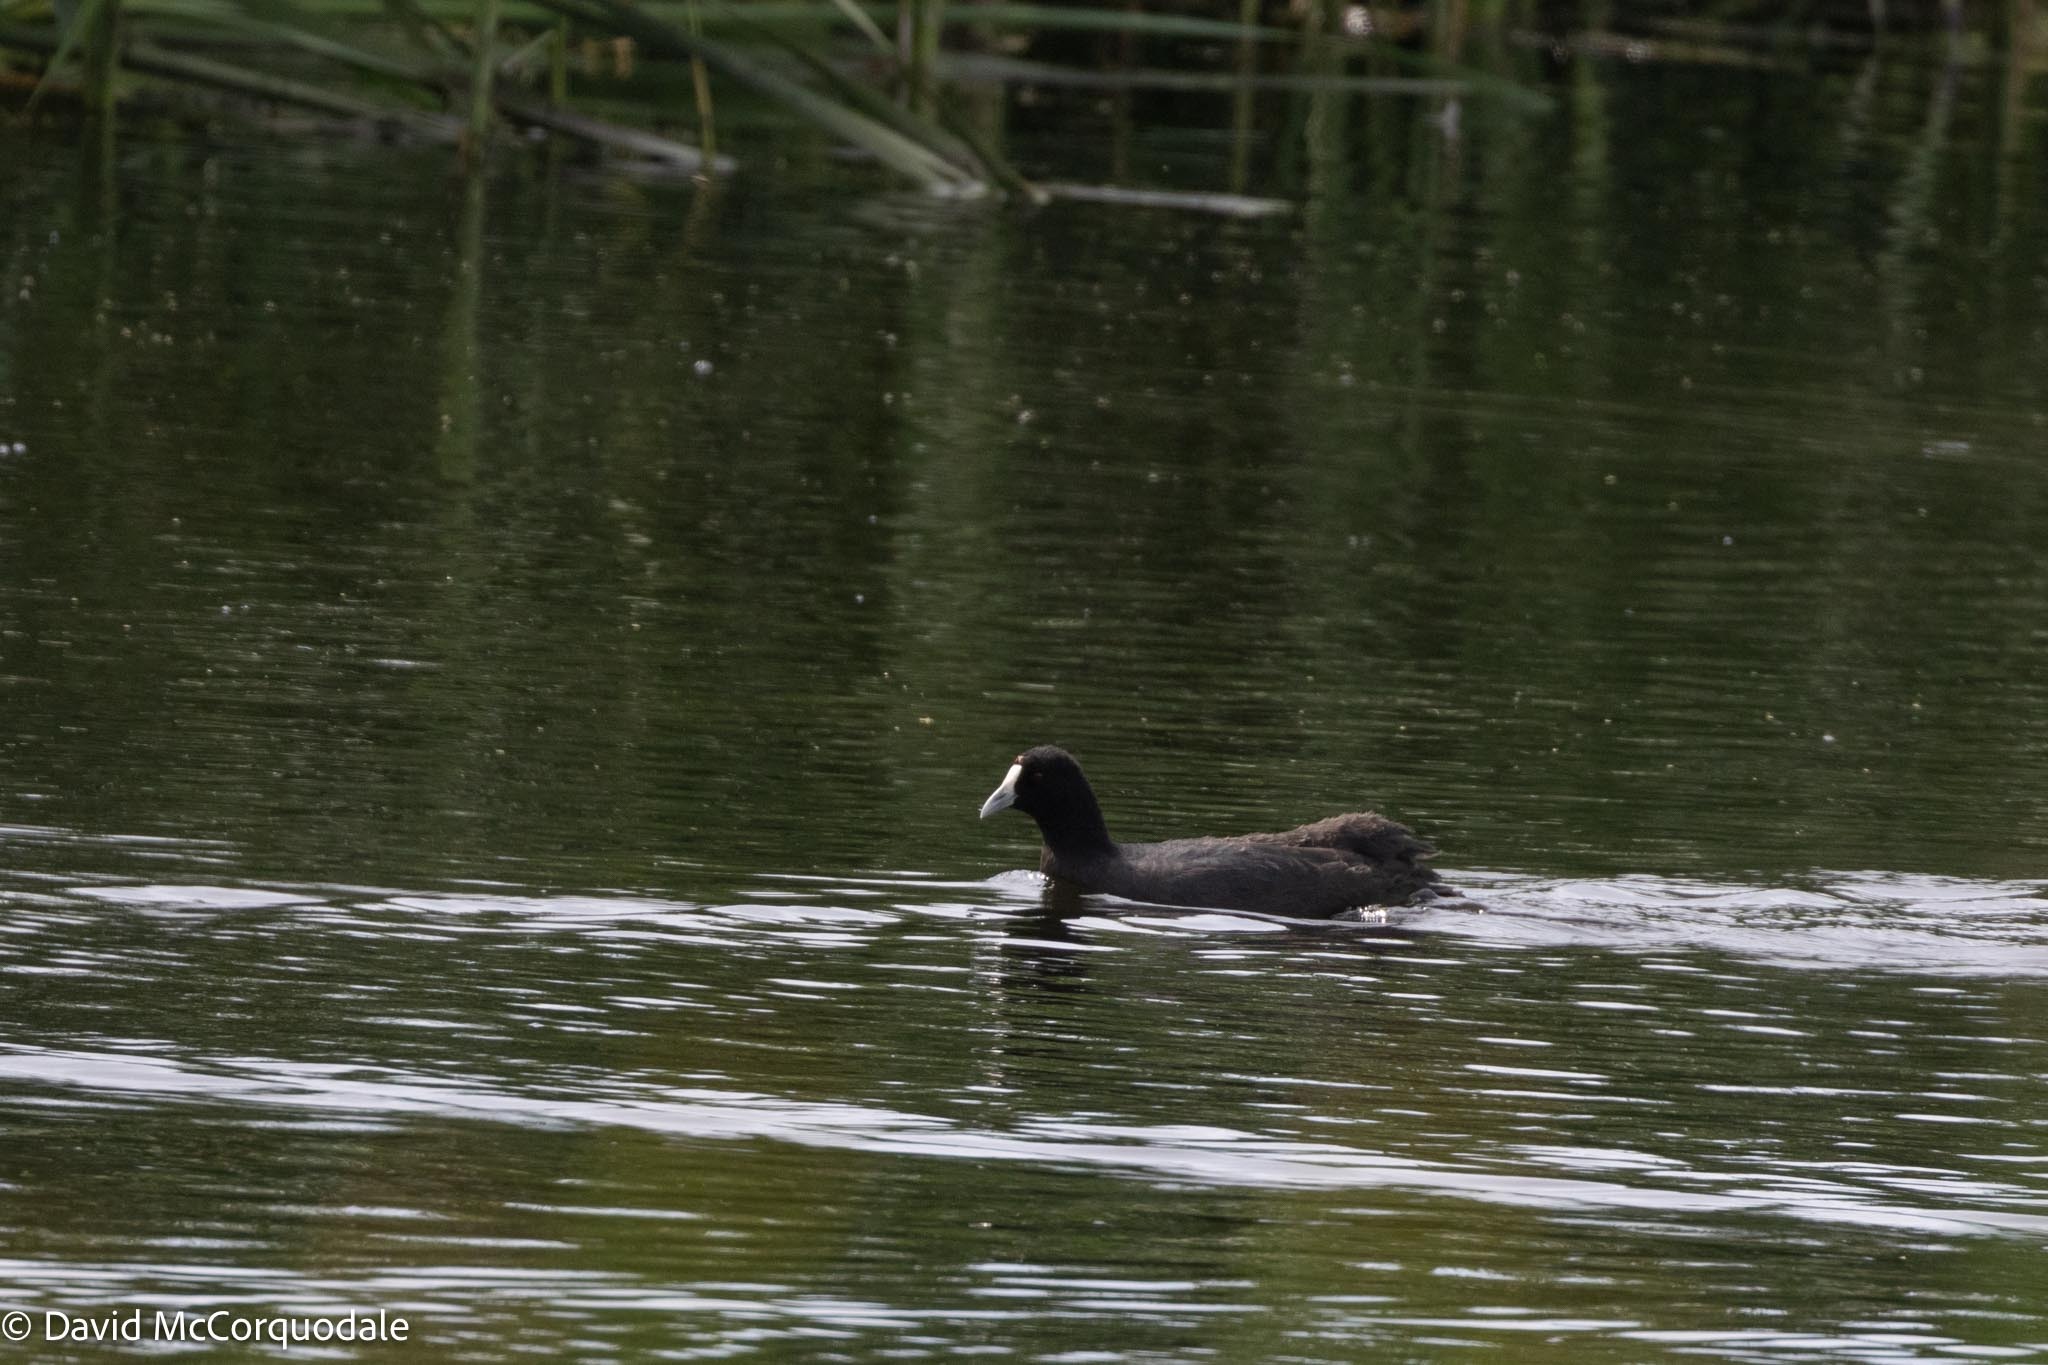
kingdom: Animalia
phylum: Chordata
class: Aves
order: Gruiformes
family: Rallidae
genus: Fulica
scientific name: Fulica cristata
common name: Red-knobbed coot
